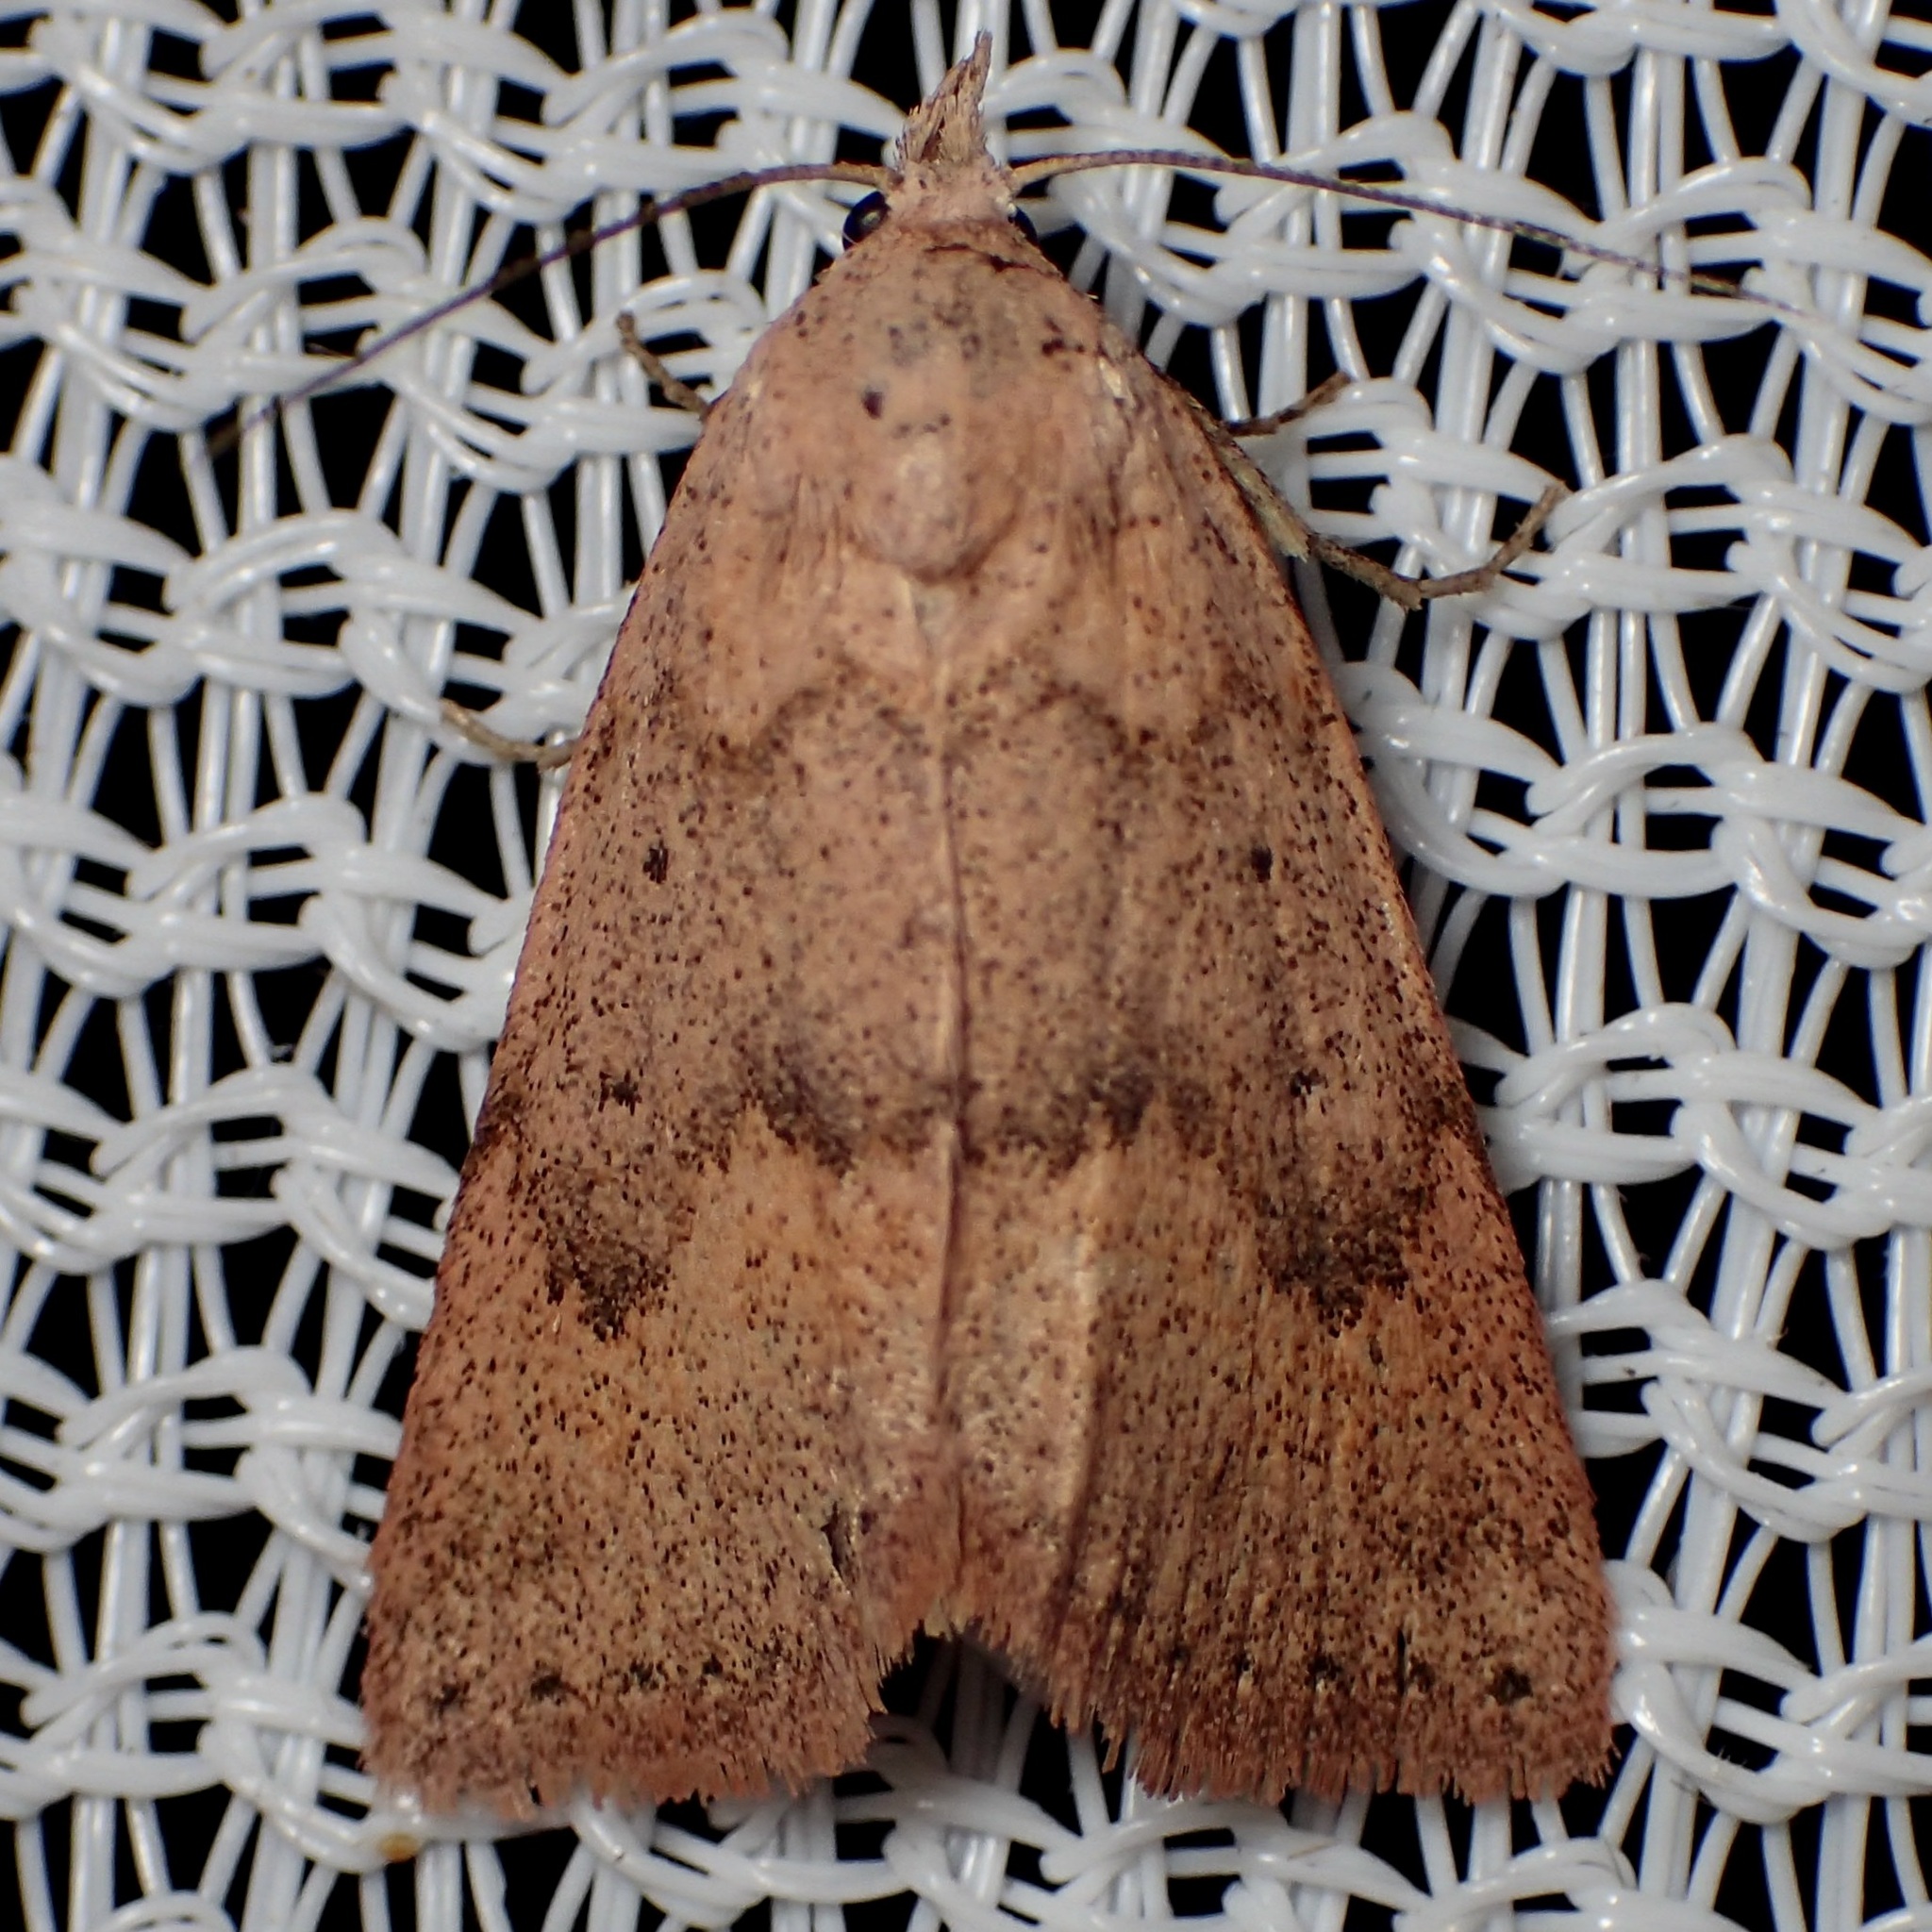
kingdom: Animalia
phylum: Arthropoda
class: Insecta
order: Lepidoptera
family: Erebidae
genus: Pseudorgyia
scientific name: Pseudorgyia russula
